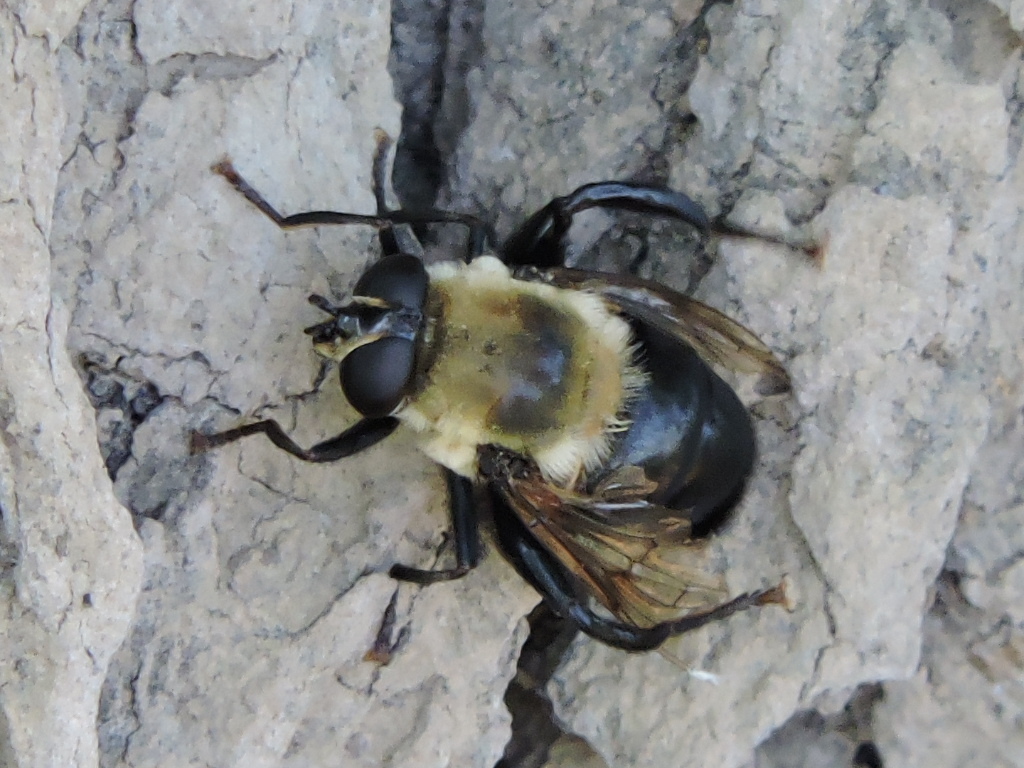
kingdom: Animalia
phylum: Arthropoda
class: Insecta
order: Diptera
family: Syrphidae
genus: Imatisma
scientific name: Imatisma bautias
